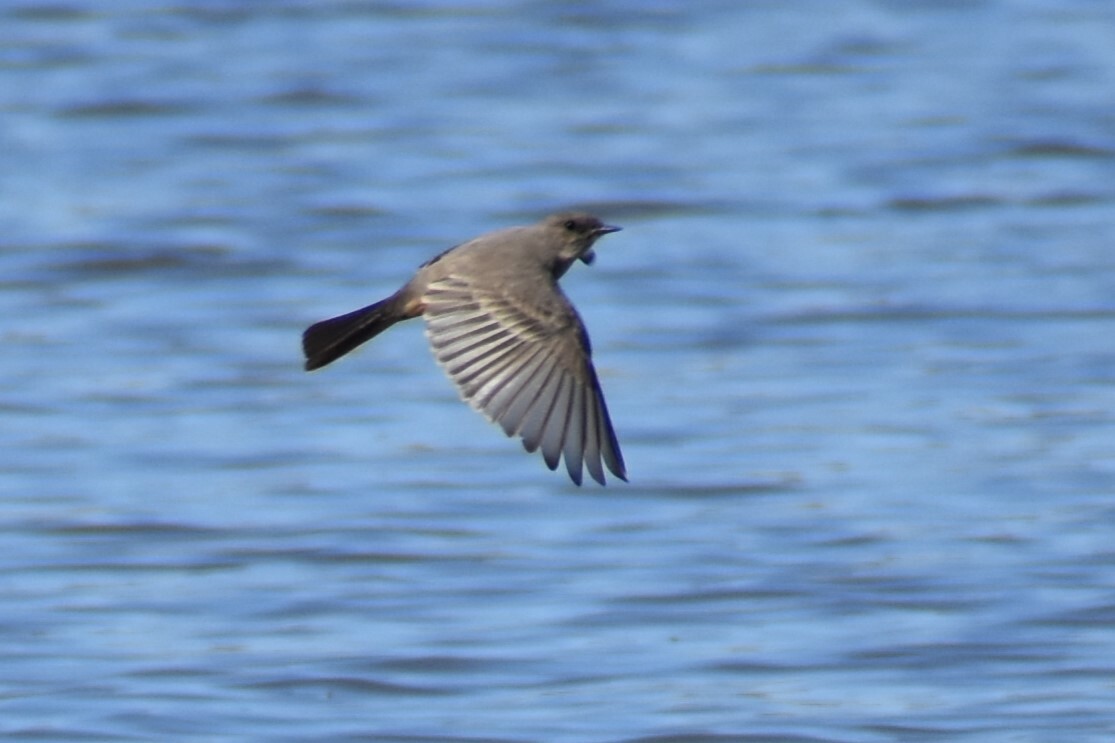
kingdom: Animalia
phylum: Chordata
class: Aves
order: Passeriformes
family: Tyrannidae
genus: Sayornis
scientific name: Sayornis saya
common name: Say's phoebe
